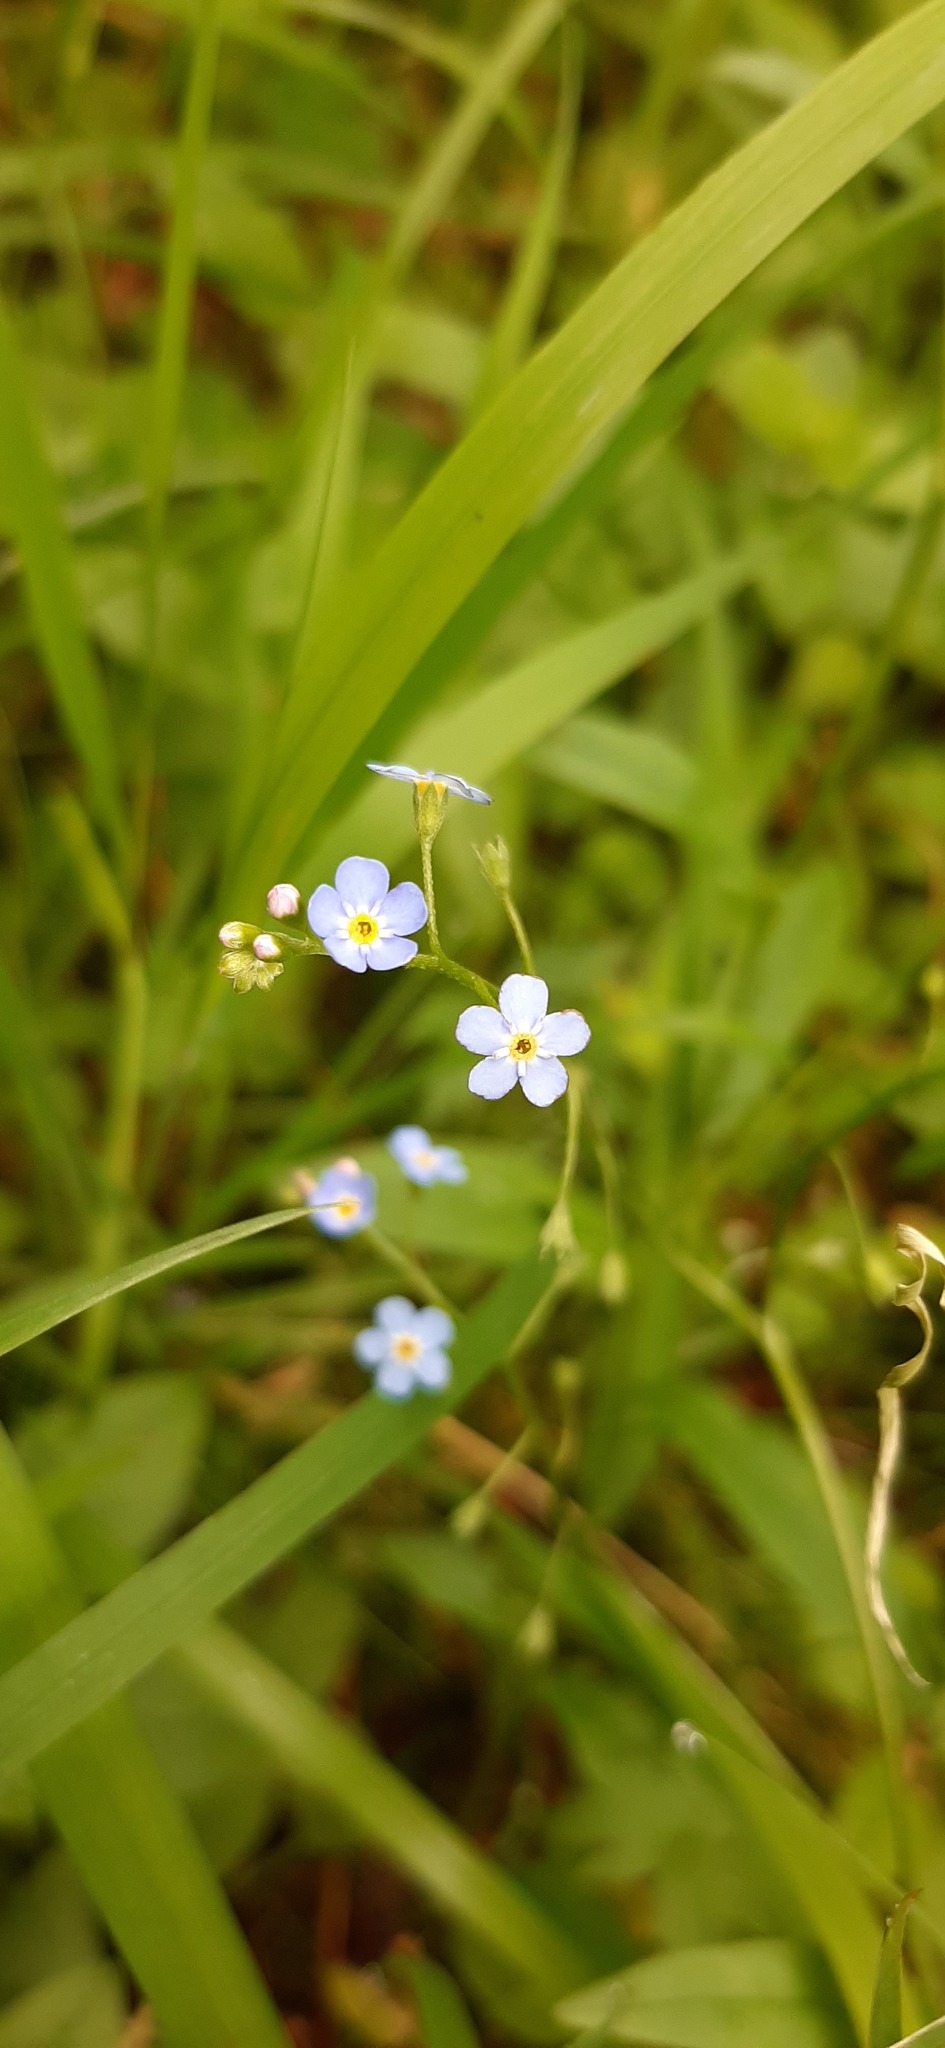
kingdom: Plantae
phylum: Tracheophyta
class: Magnoliopsida
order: Boraginales
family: Boraginaceae
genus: Myosotis
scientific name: Myosotis scorpioides
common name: Water forget-me-not
